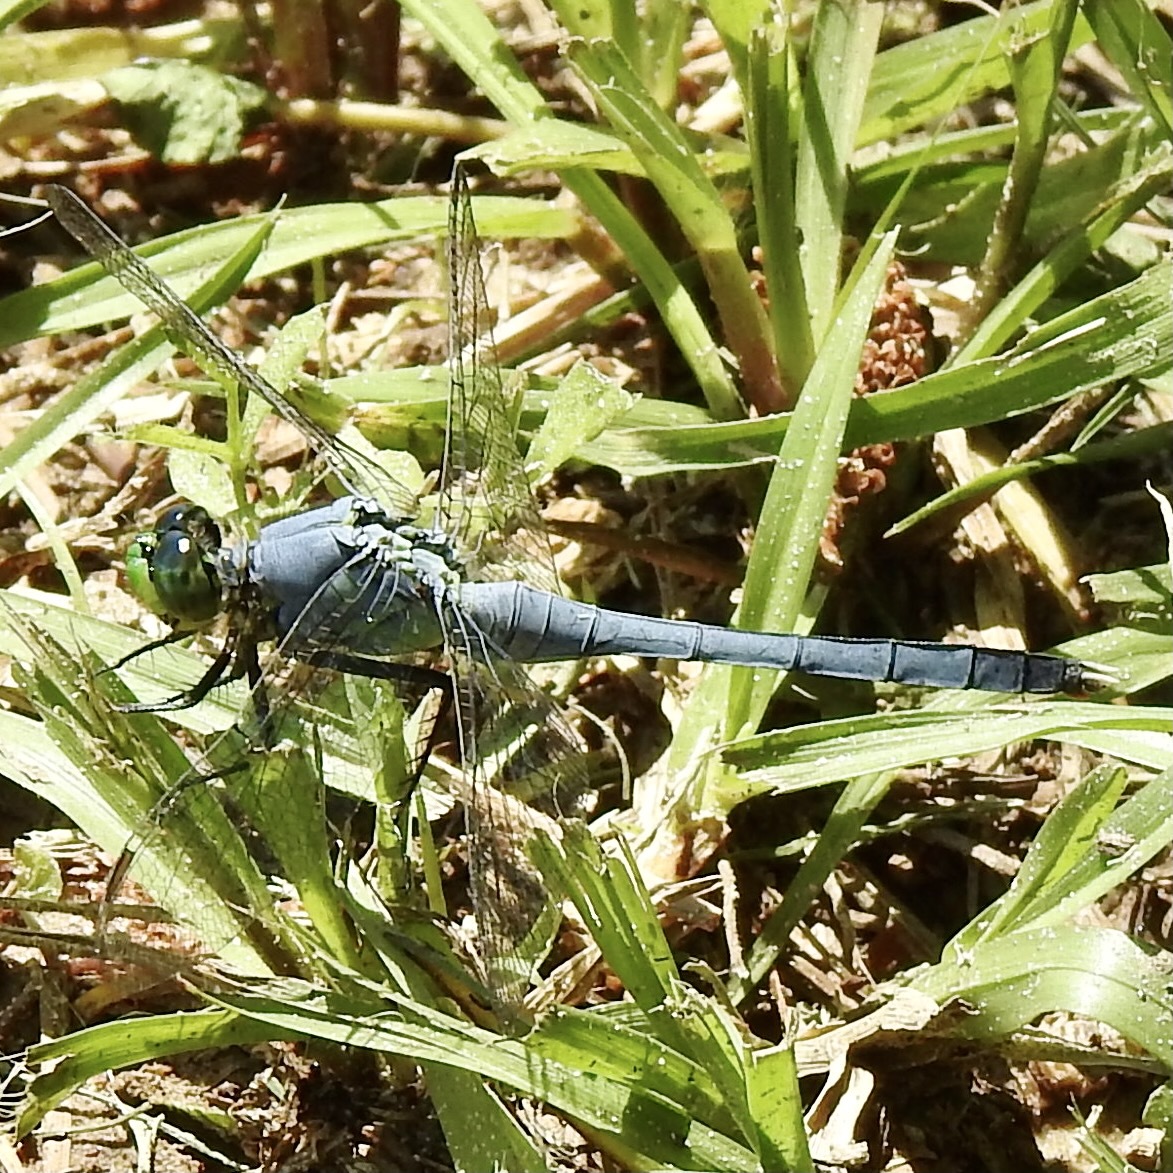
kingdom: Animalia
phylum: Arthropoda
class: Insecta
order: Odonata
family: Libellulidae
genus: Erythemis
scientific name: Erythemis simplicicollis
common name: Eastern pondhawk
